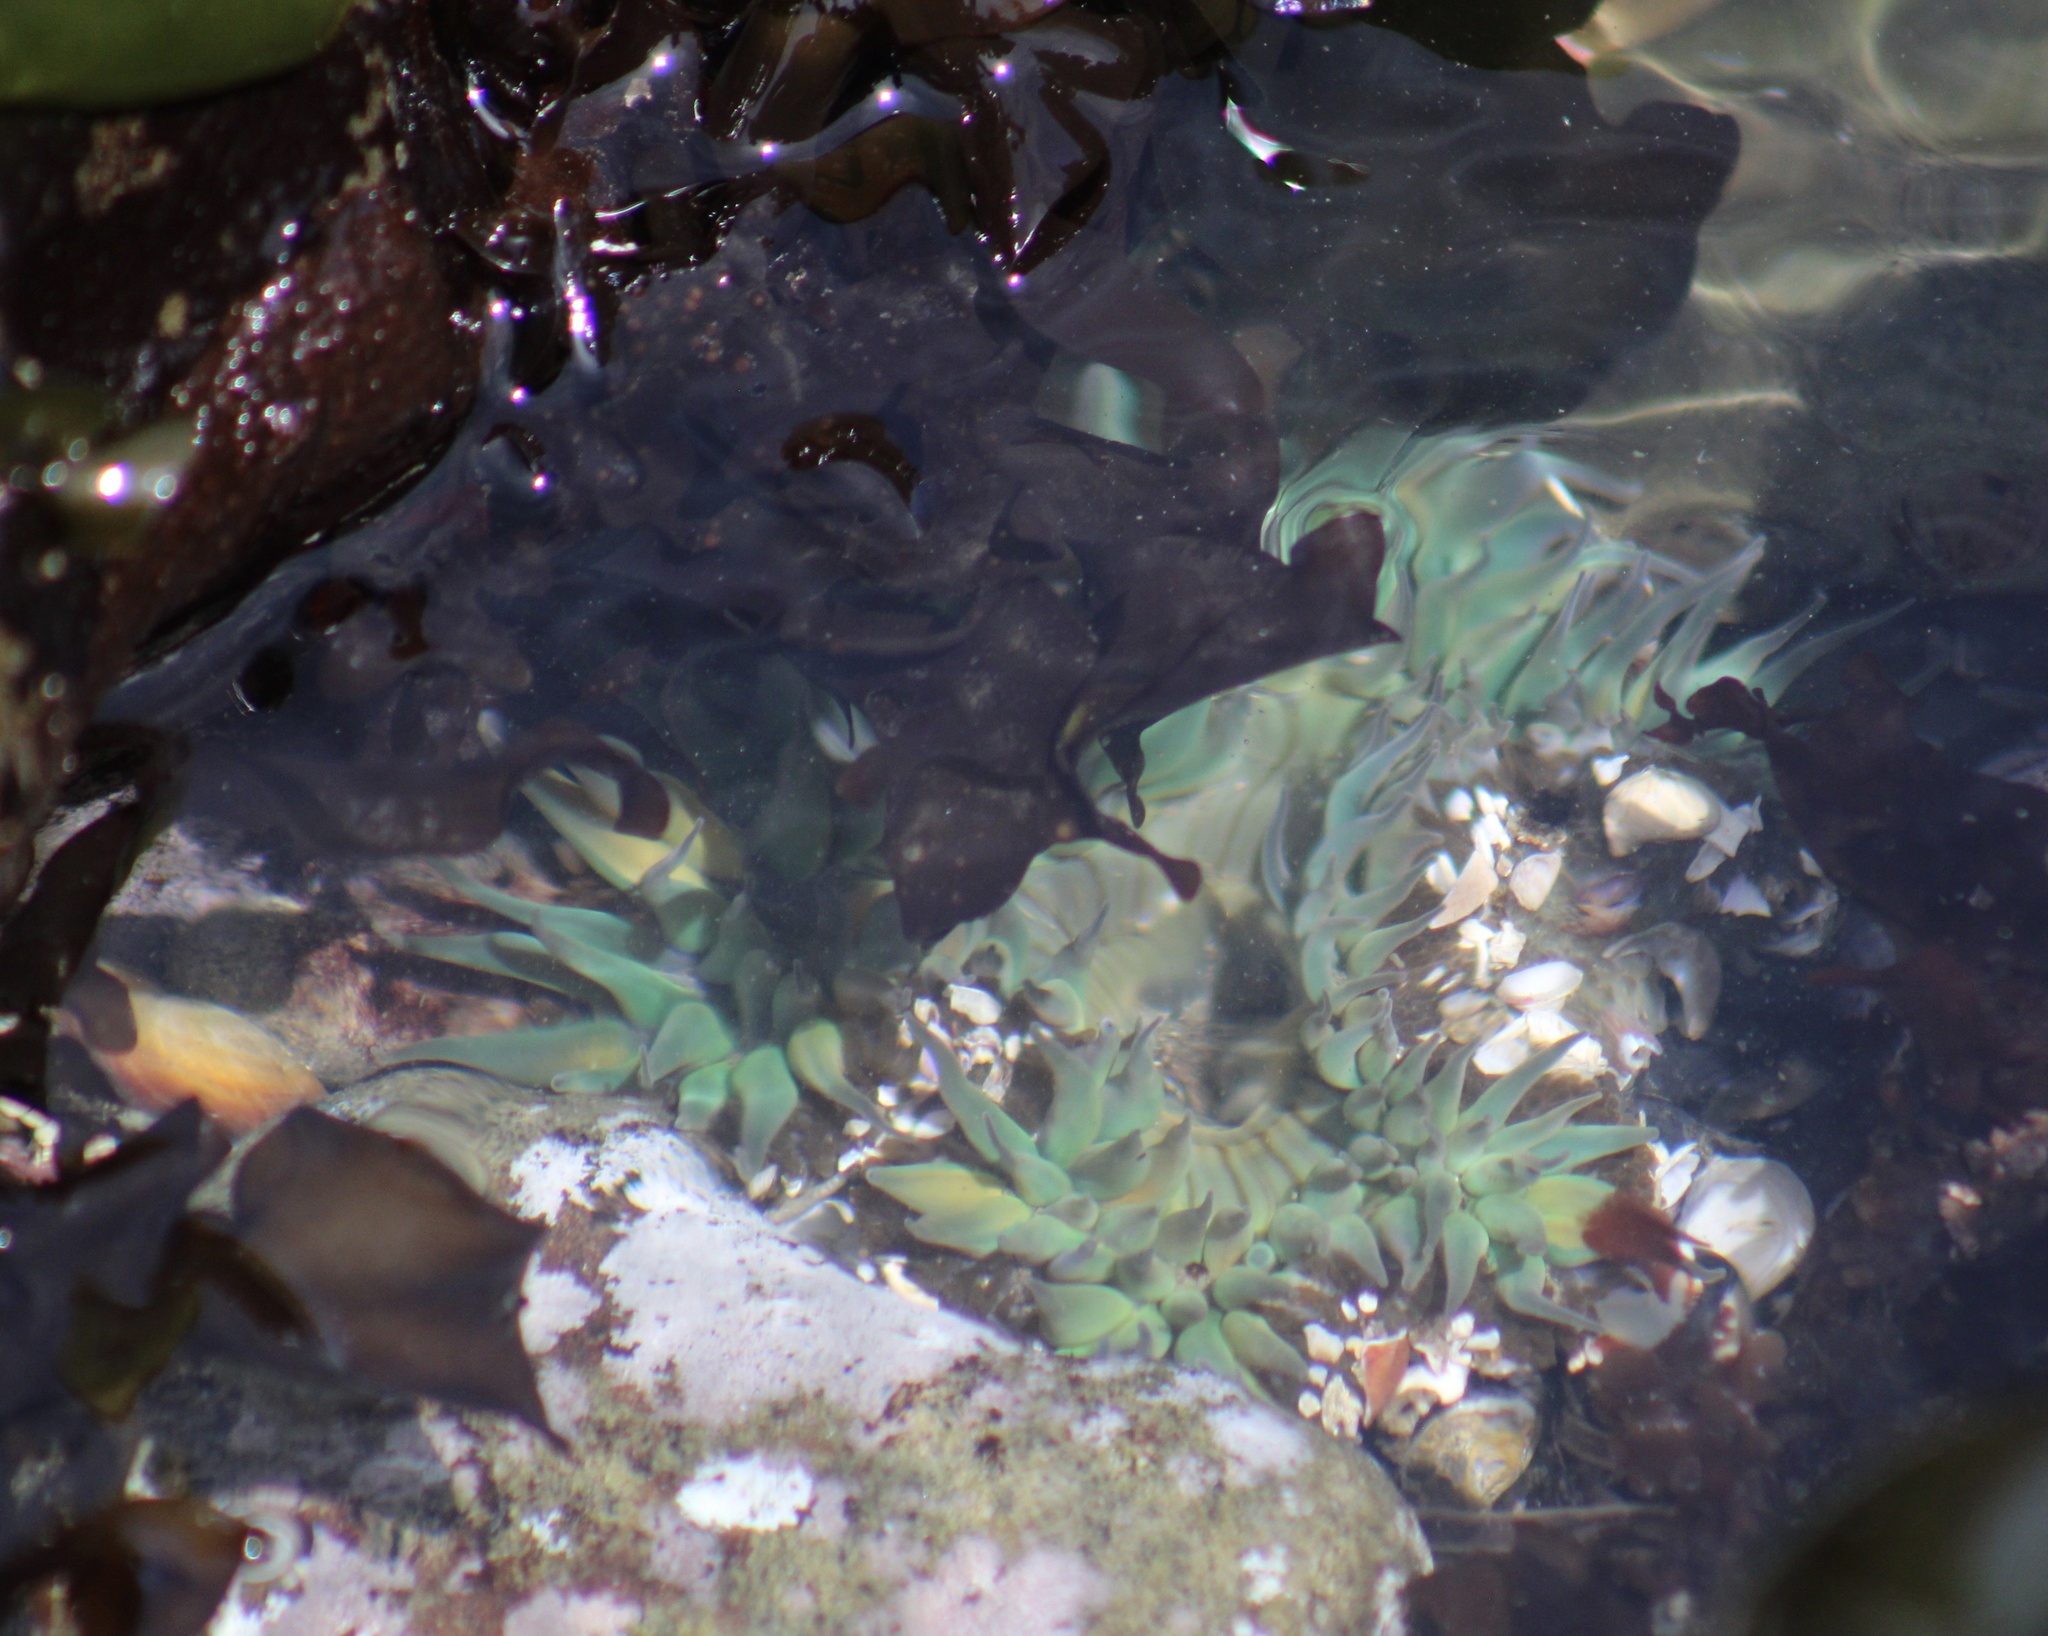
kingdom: Animalia
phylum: Cnidaria
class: Anthozoa
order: Actiniaria
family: Actiniidae
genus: Anthopleura
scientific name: Anthopleura sola
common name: Sun anemone
